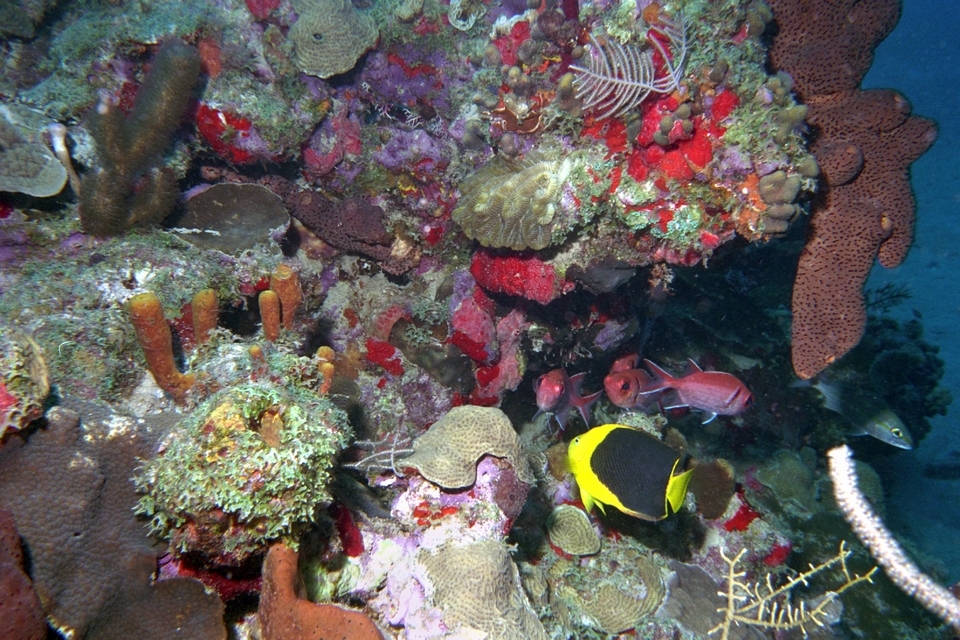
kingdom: Animalia
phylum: Chordata
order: Perciformes
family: Pomacanthidae
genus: Holacanthus
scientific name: Holacanthus tricolor
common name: Rock beauty
